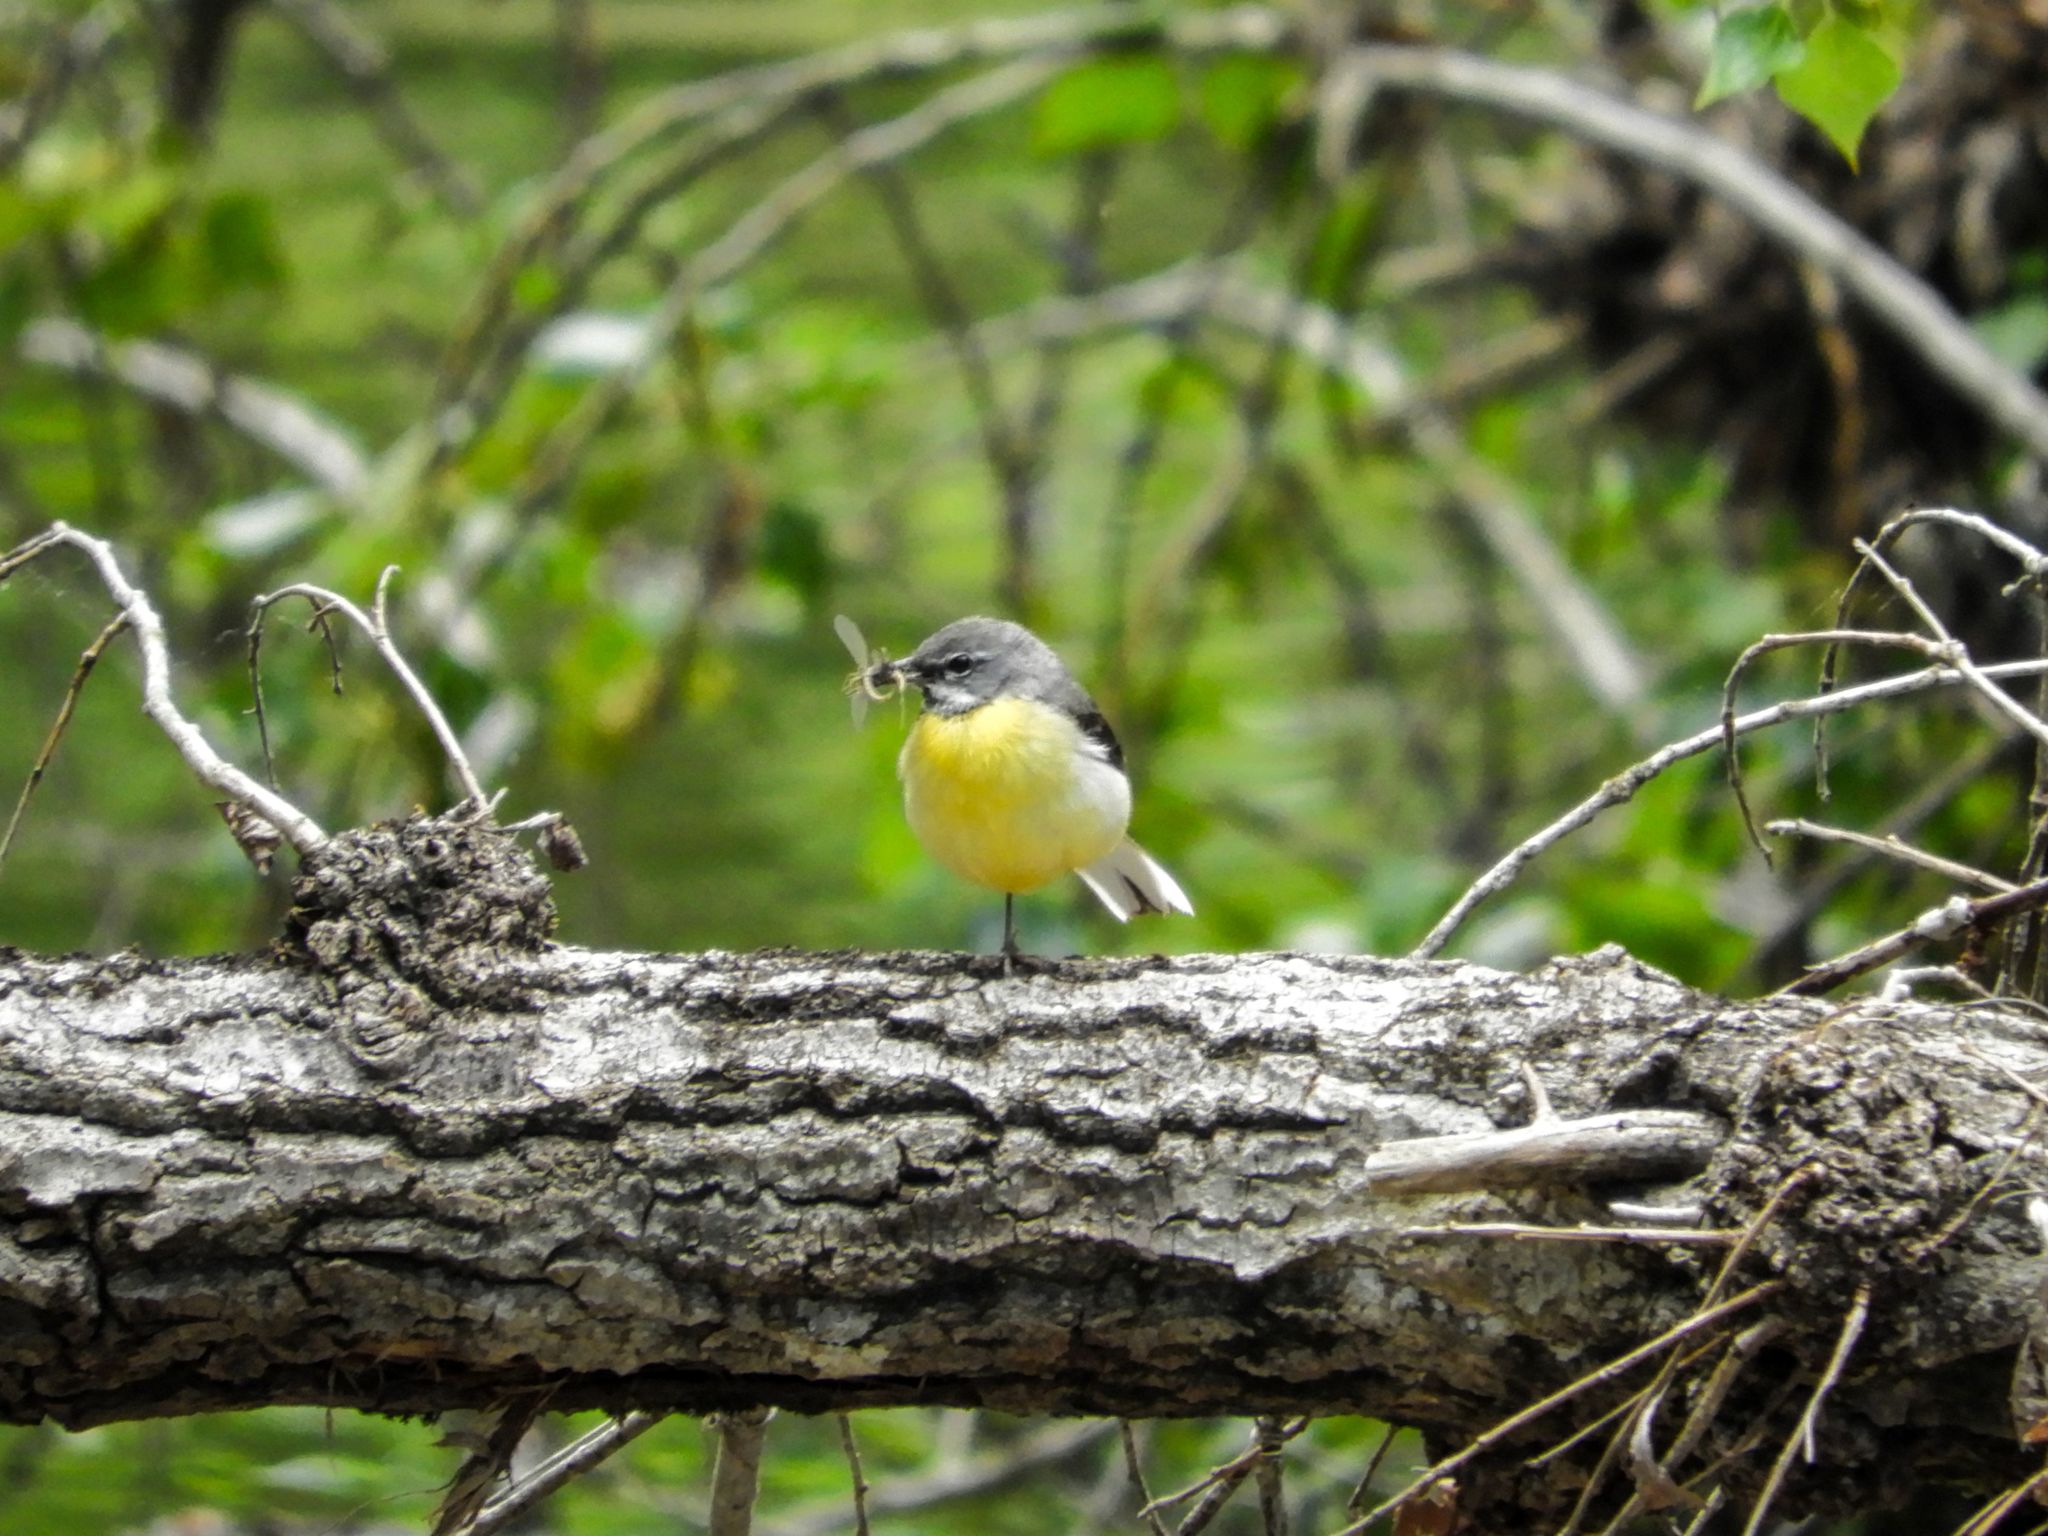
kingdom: Animalia
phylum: Chordata
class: Aves
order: Passeriformes
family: Motacillidae
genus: Motacilla
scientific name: Motacilla cinerea
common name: Grey wagtail
